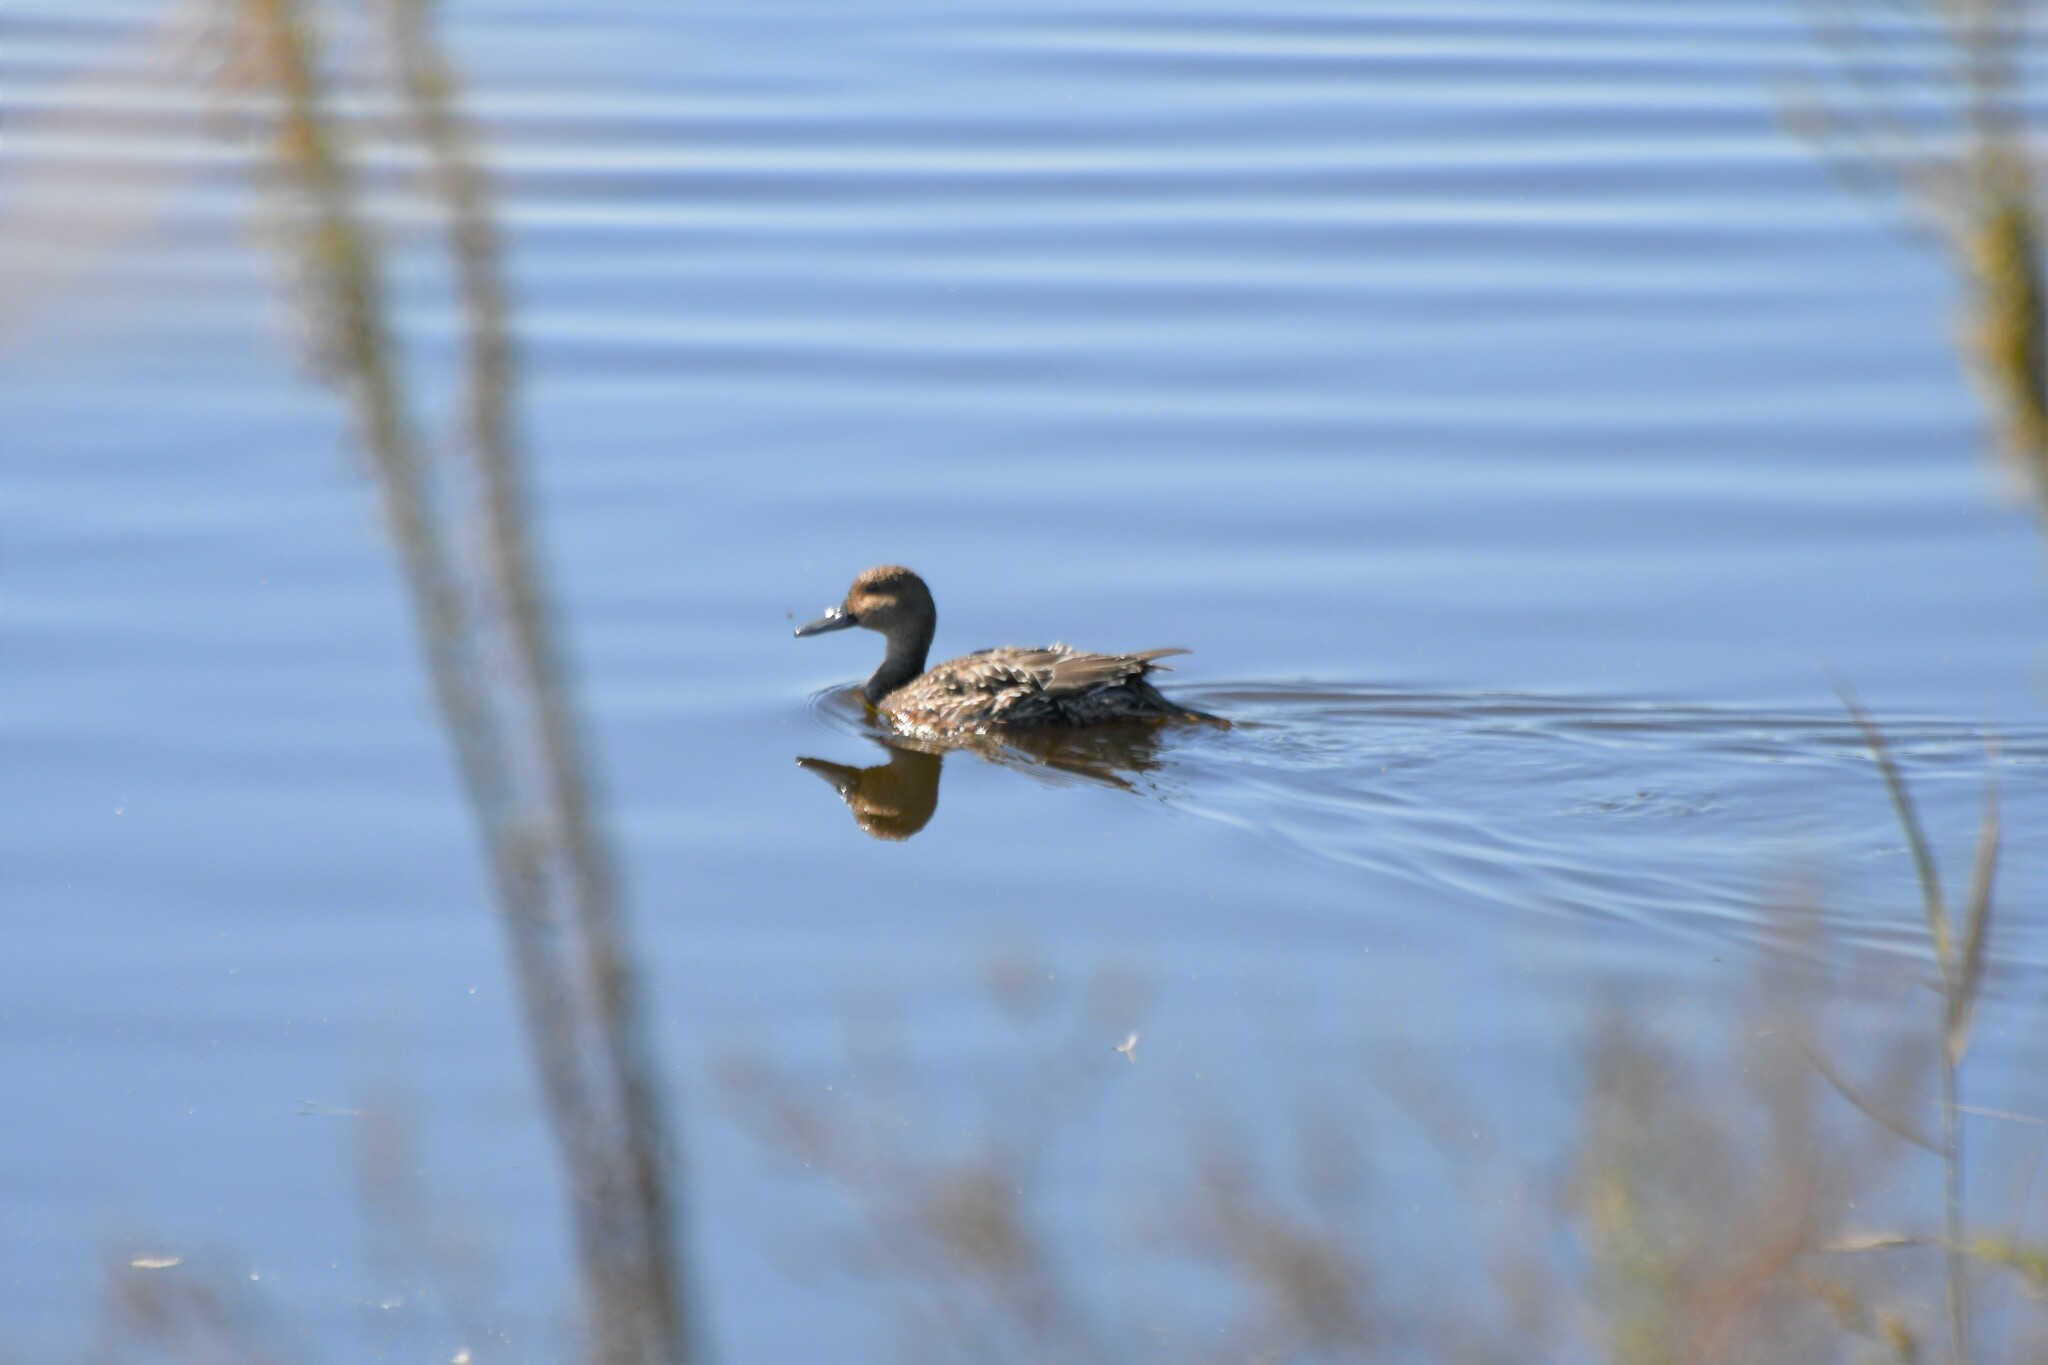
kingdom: Animalia
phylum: Chordata
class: Aves
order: Anseriformes
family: Anatidae
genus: Anas
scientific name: Anas acuta
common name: Northern pintail
